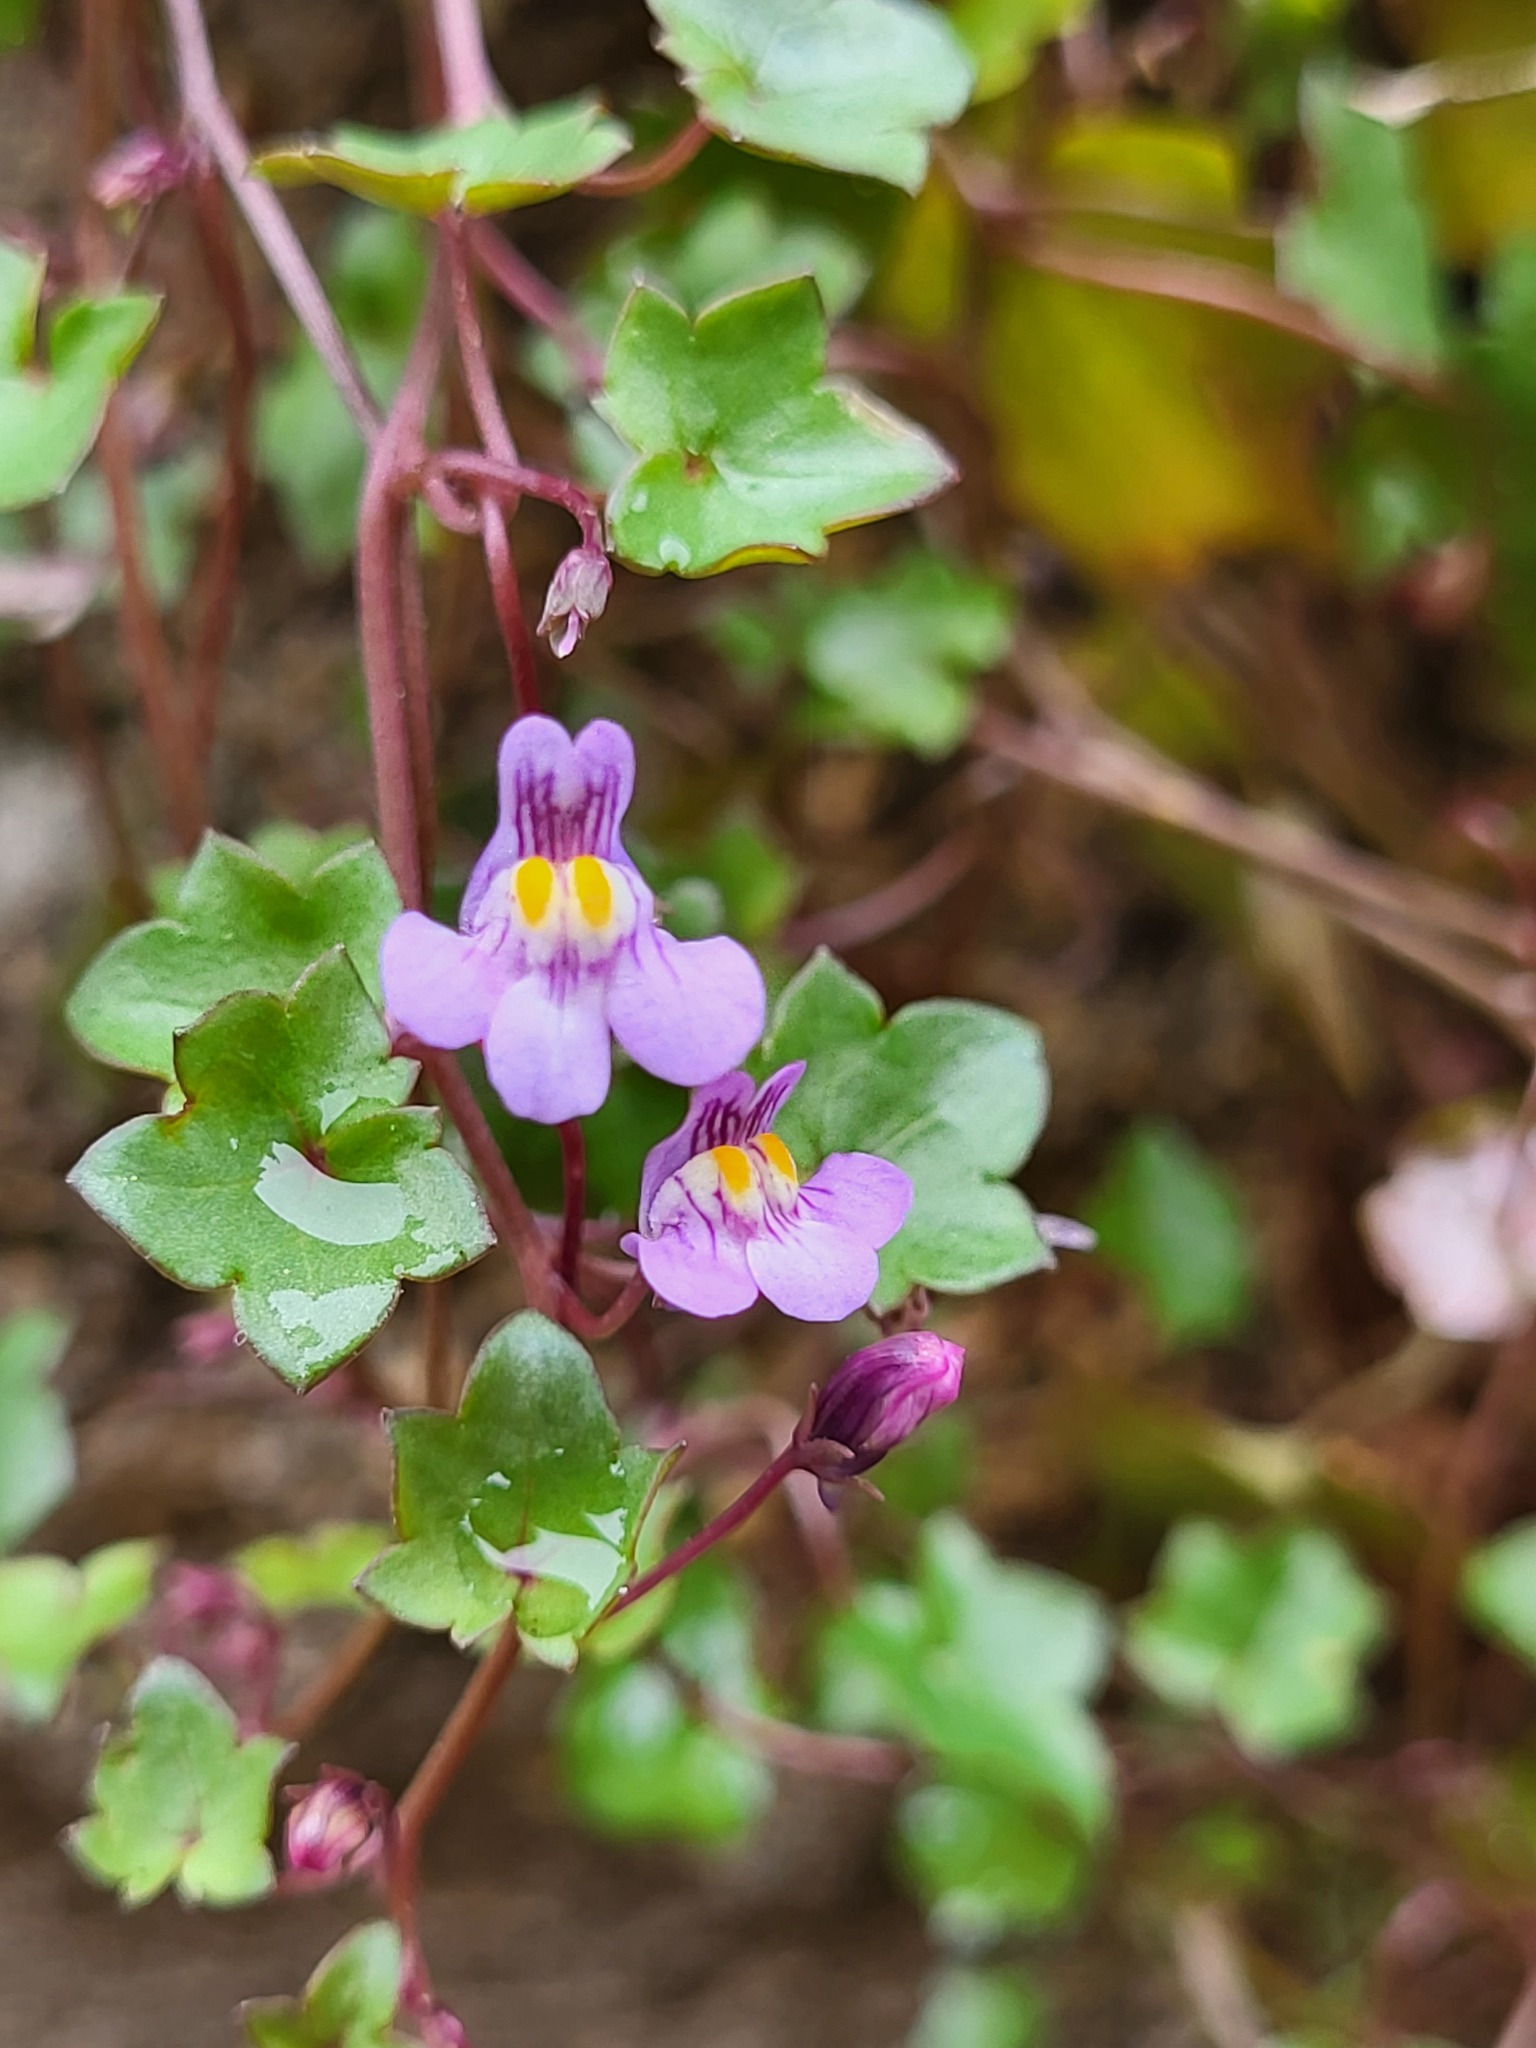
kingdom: Plantae
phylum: Tracheophyta
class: Magnoliopsida
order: Lamiales
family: Plantaginaceae
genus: Cymbalaria
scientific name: Cymbalaria muralis
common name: Ivy-leaved toadflax
